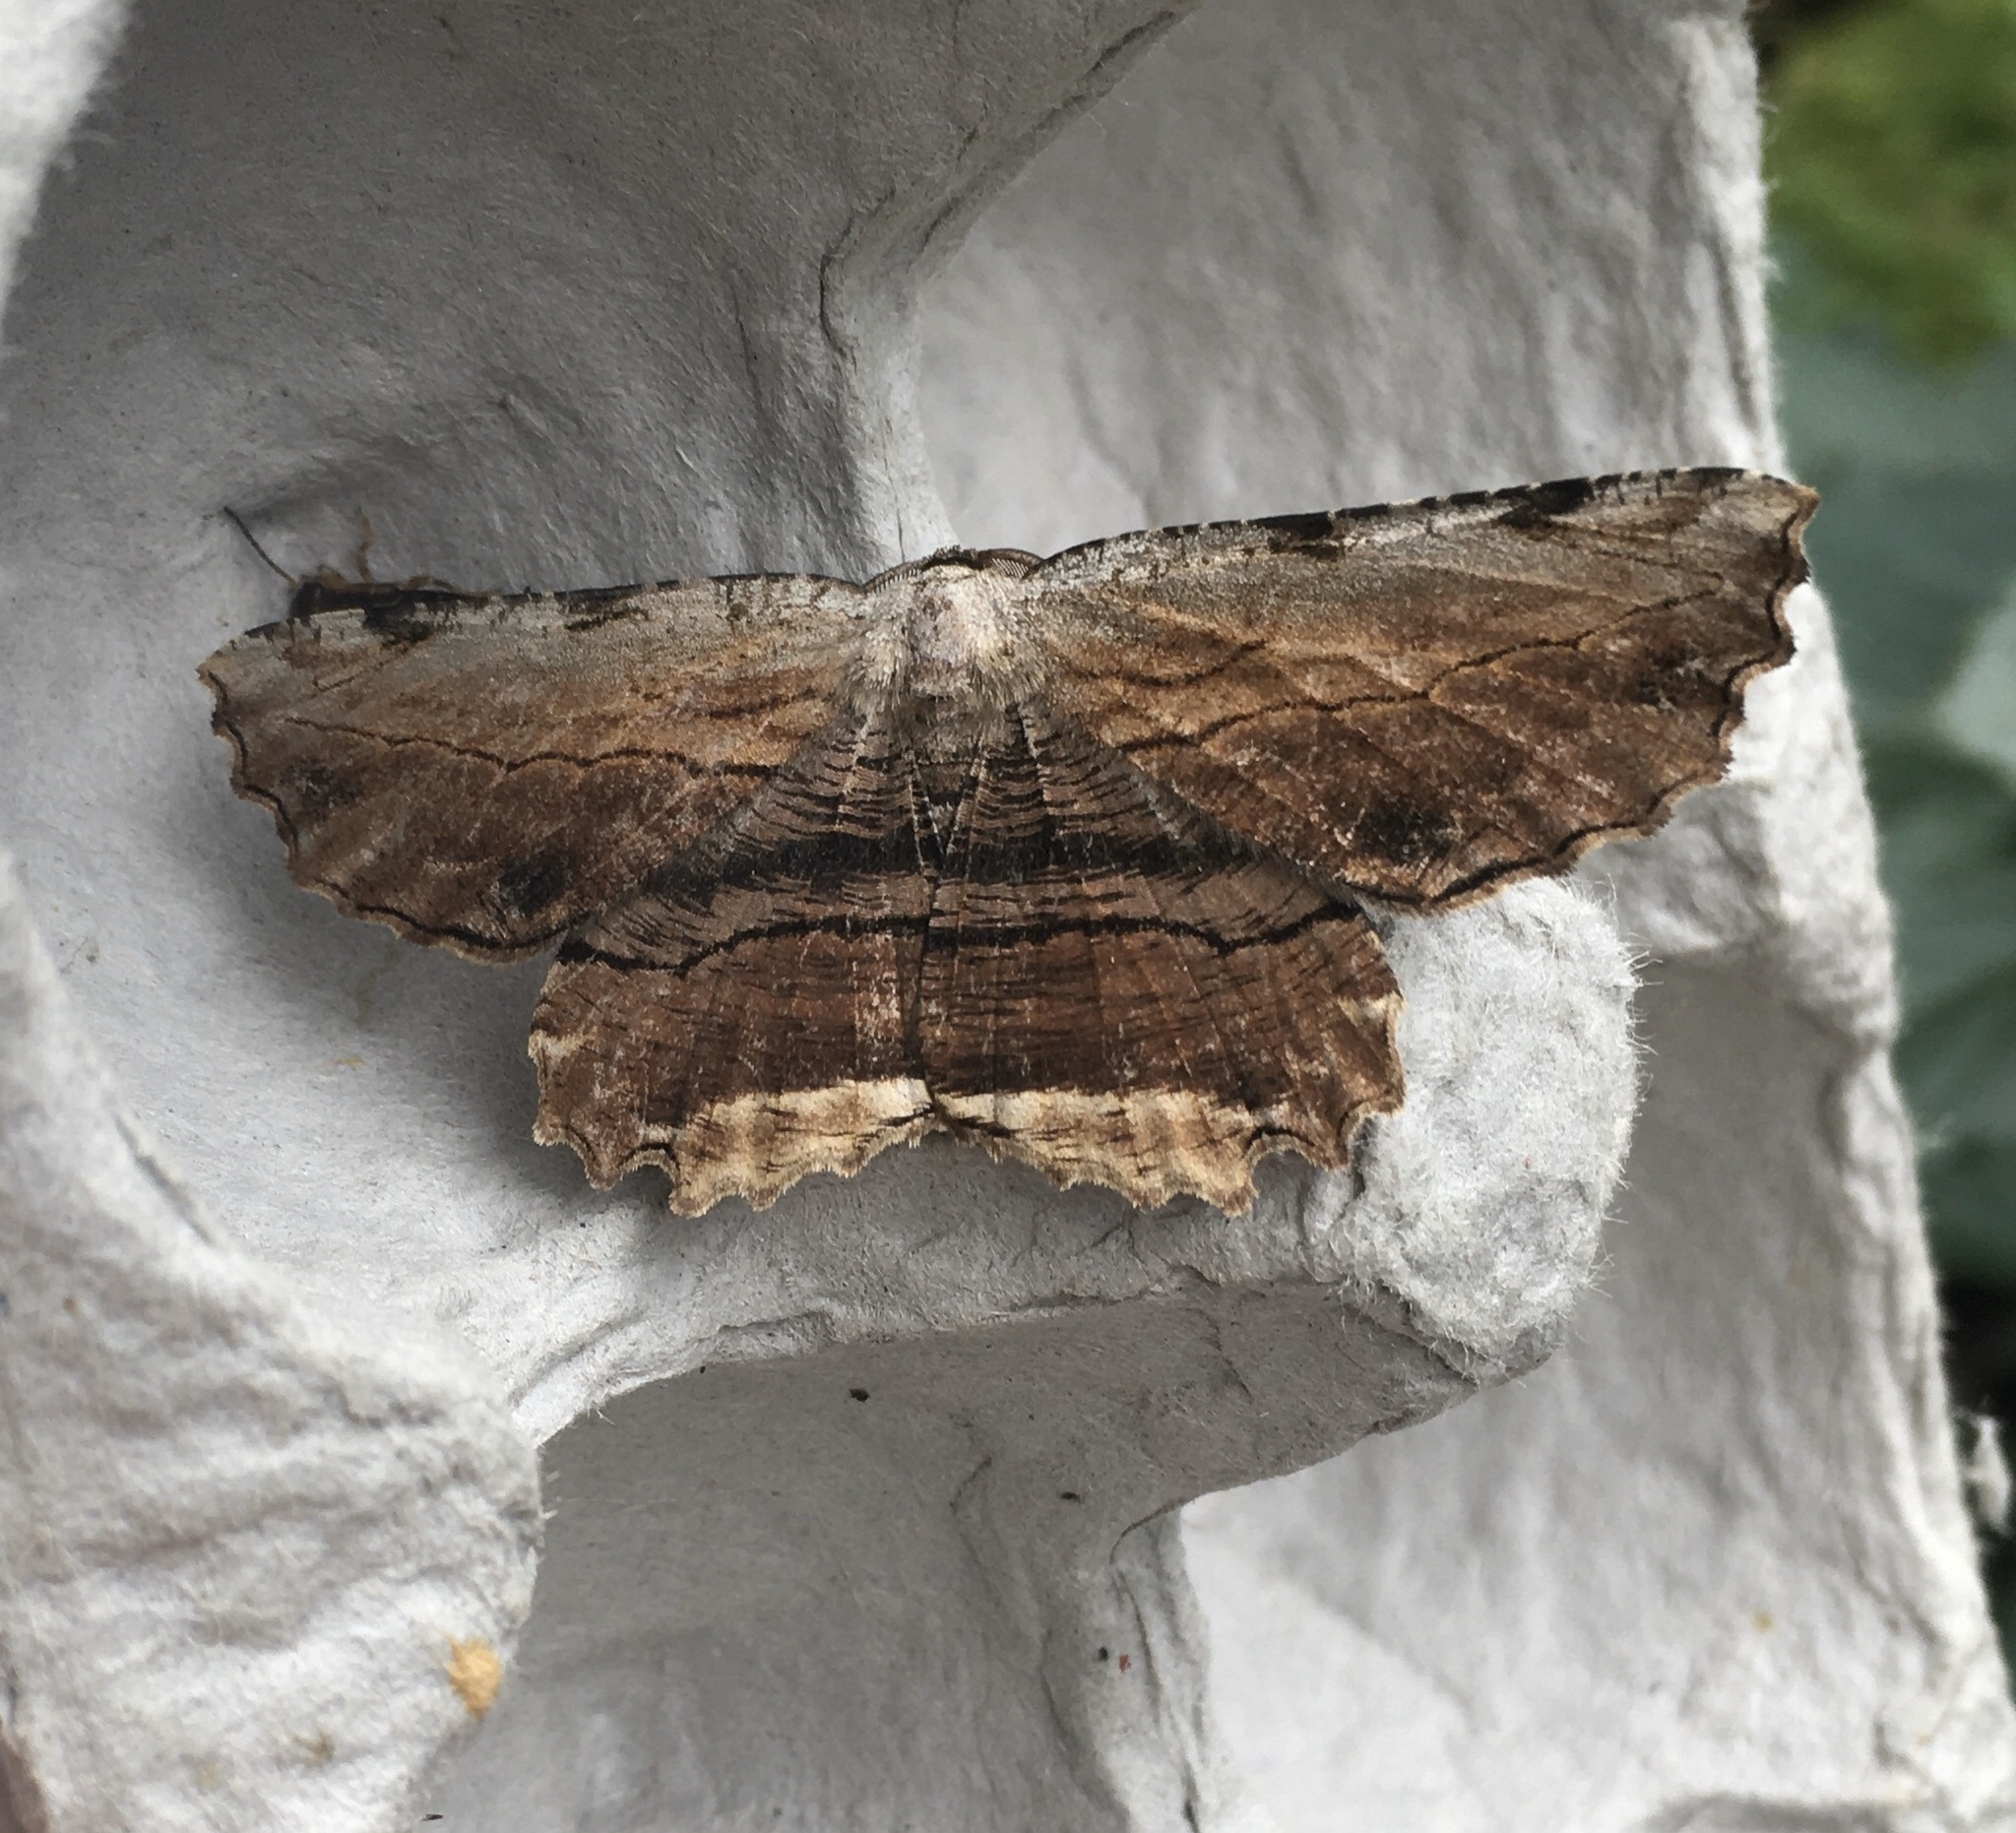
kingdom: Animalia
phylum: Arthropoda
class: Insecta
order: Lepidoptera
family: Geometridae
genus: Lytrosis
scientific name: Lytrosis unitaria
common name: Common lytrosis
